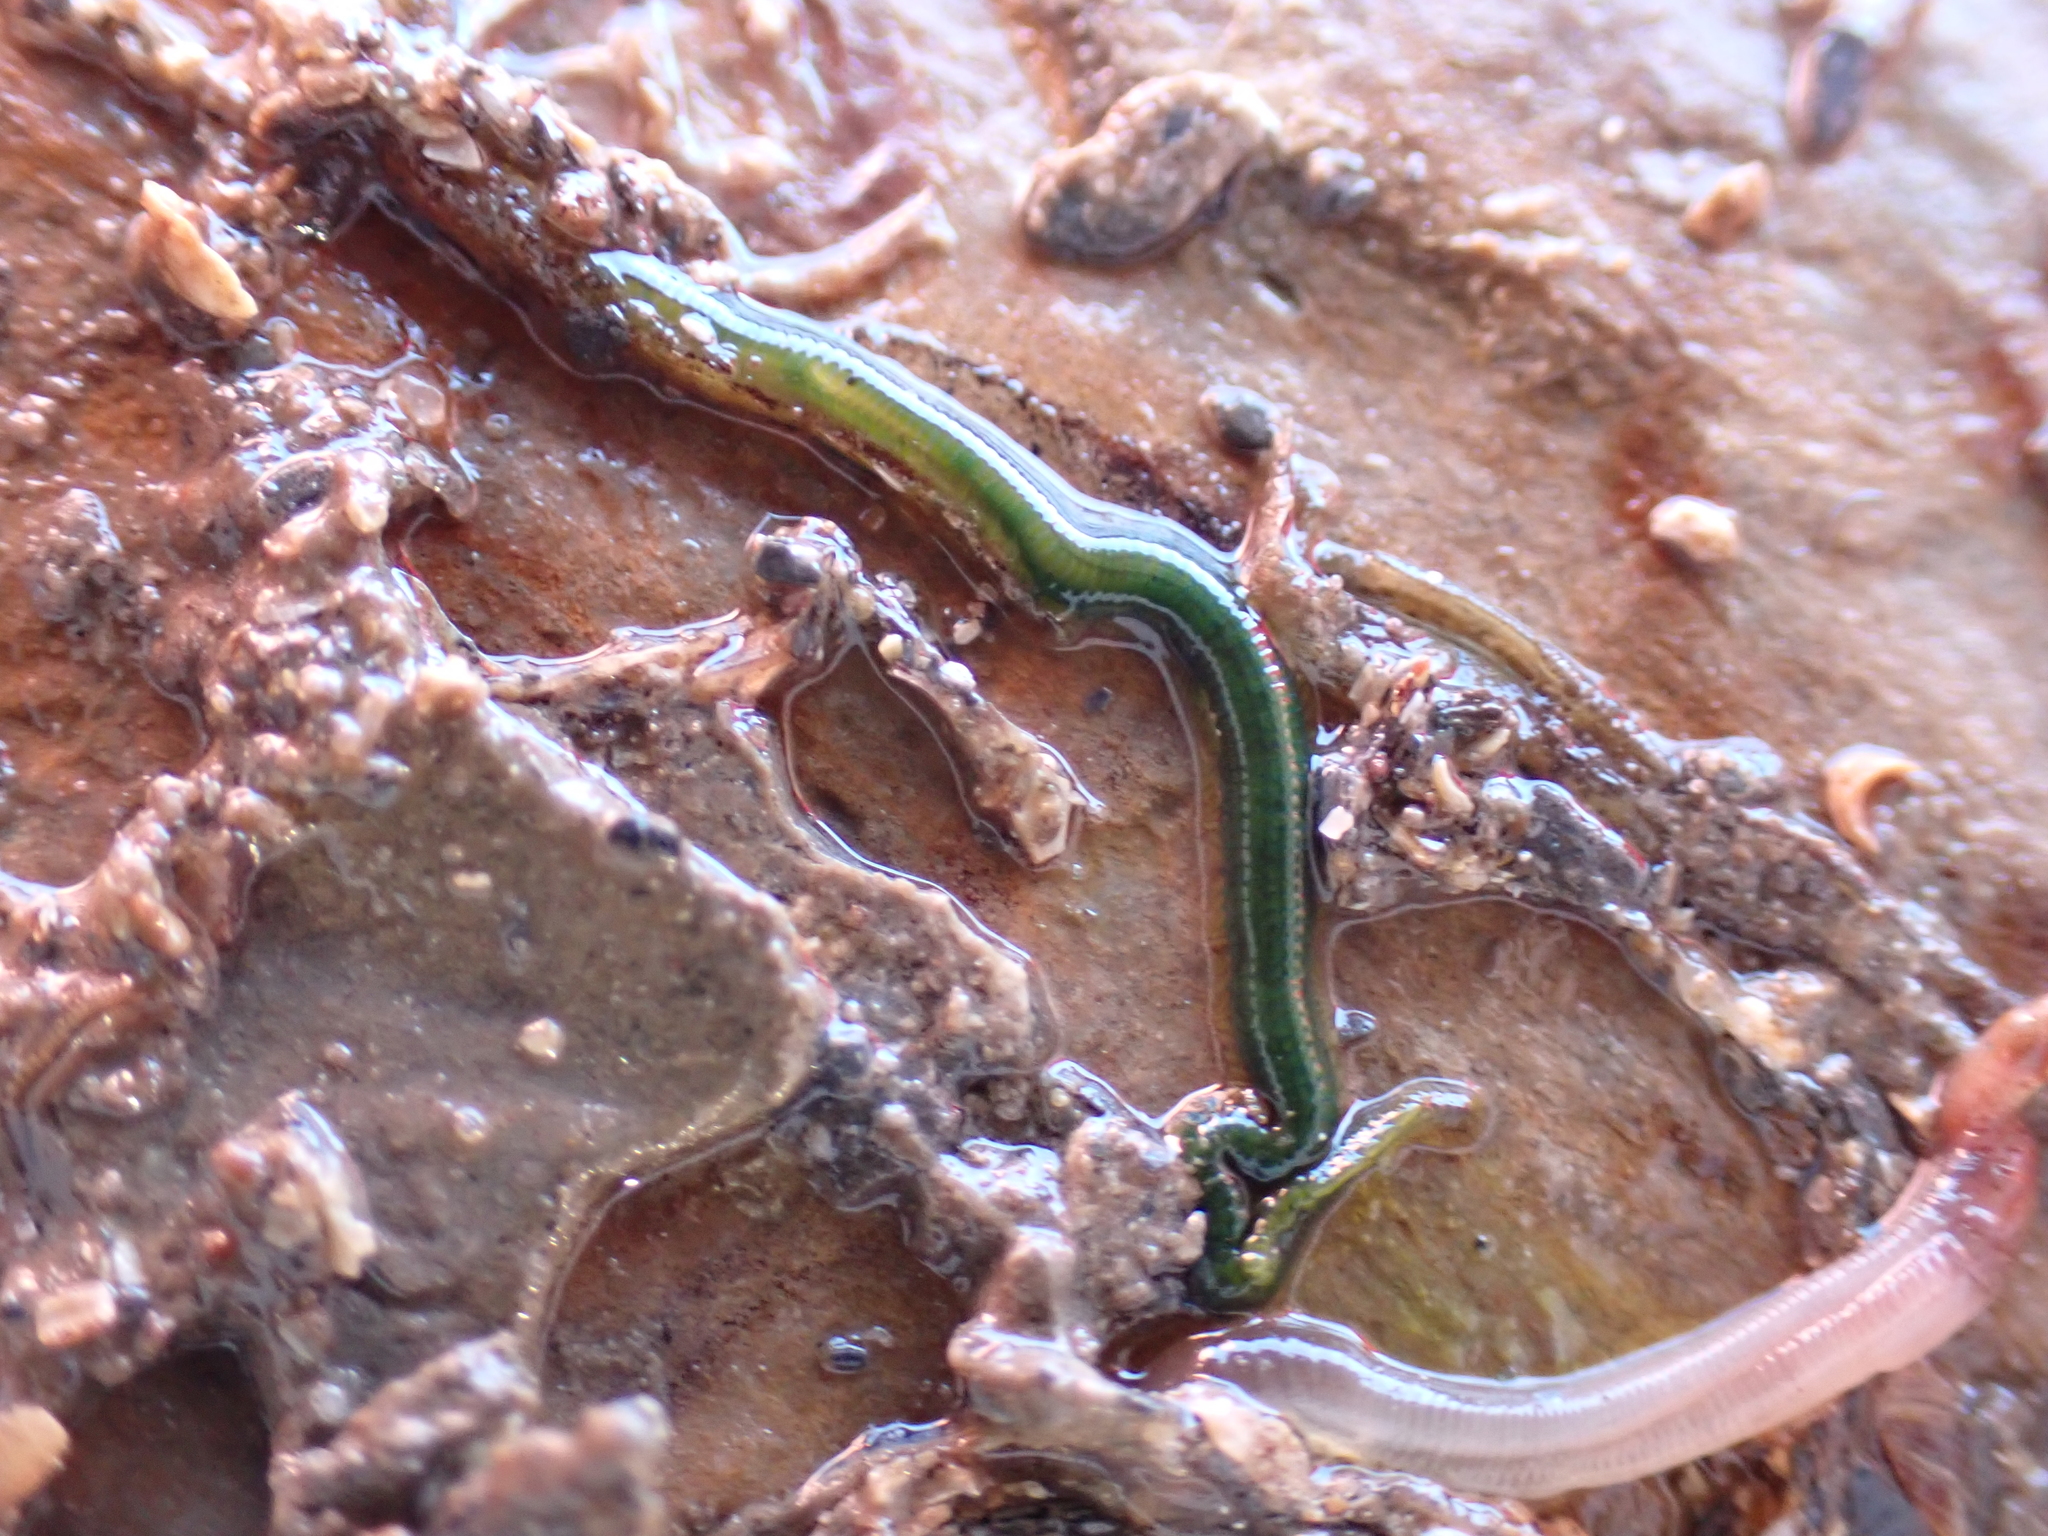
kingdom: Animalia
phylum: Annelida
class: Polychaeta
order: Phyllodocida
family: Phyllodocidae
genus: Eulalia
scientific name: Eulalia clavigera
